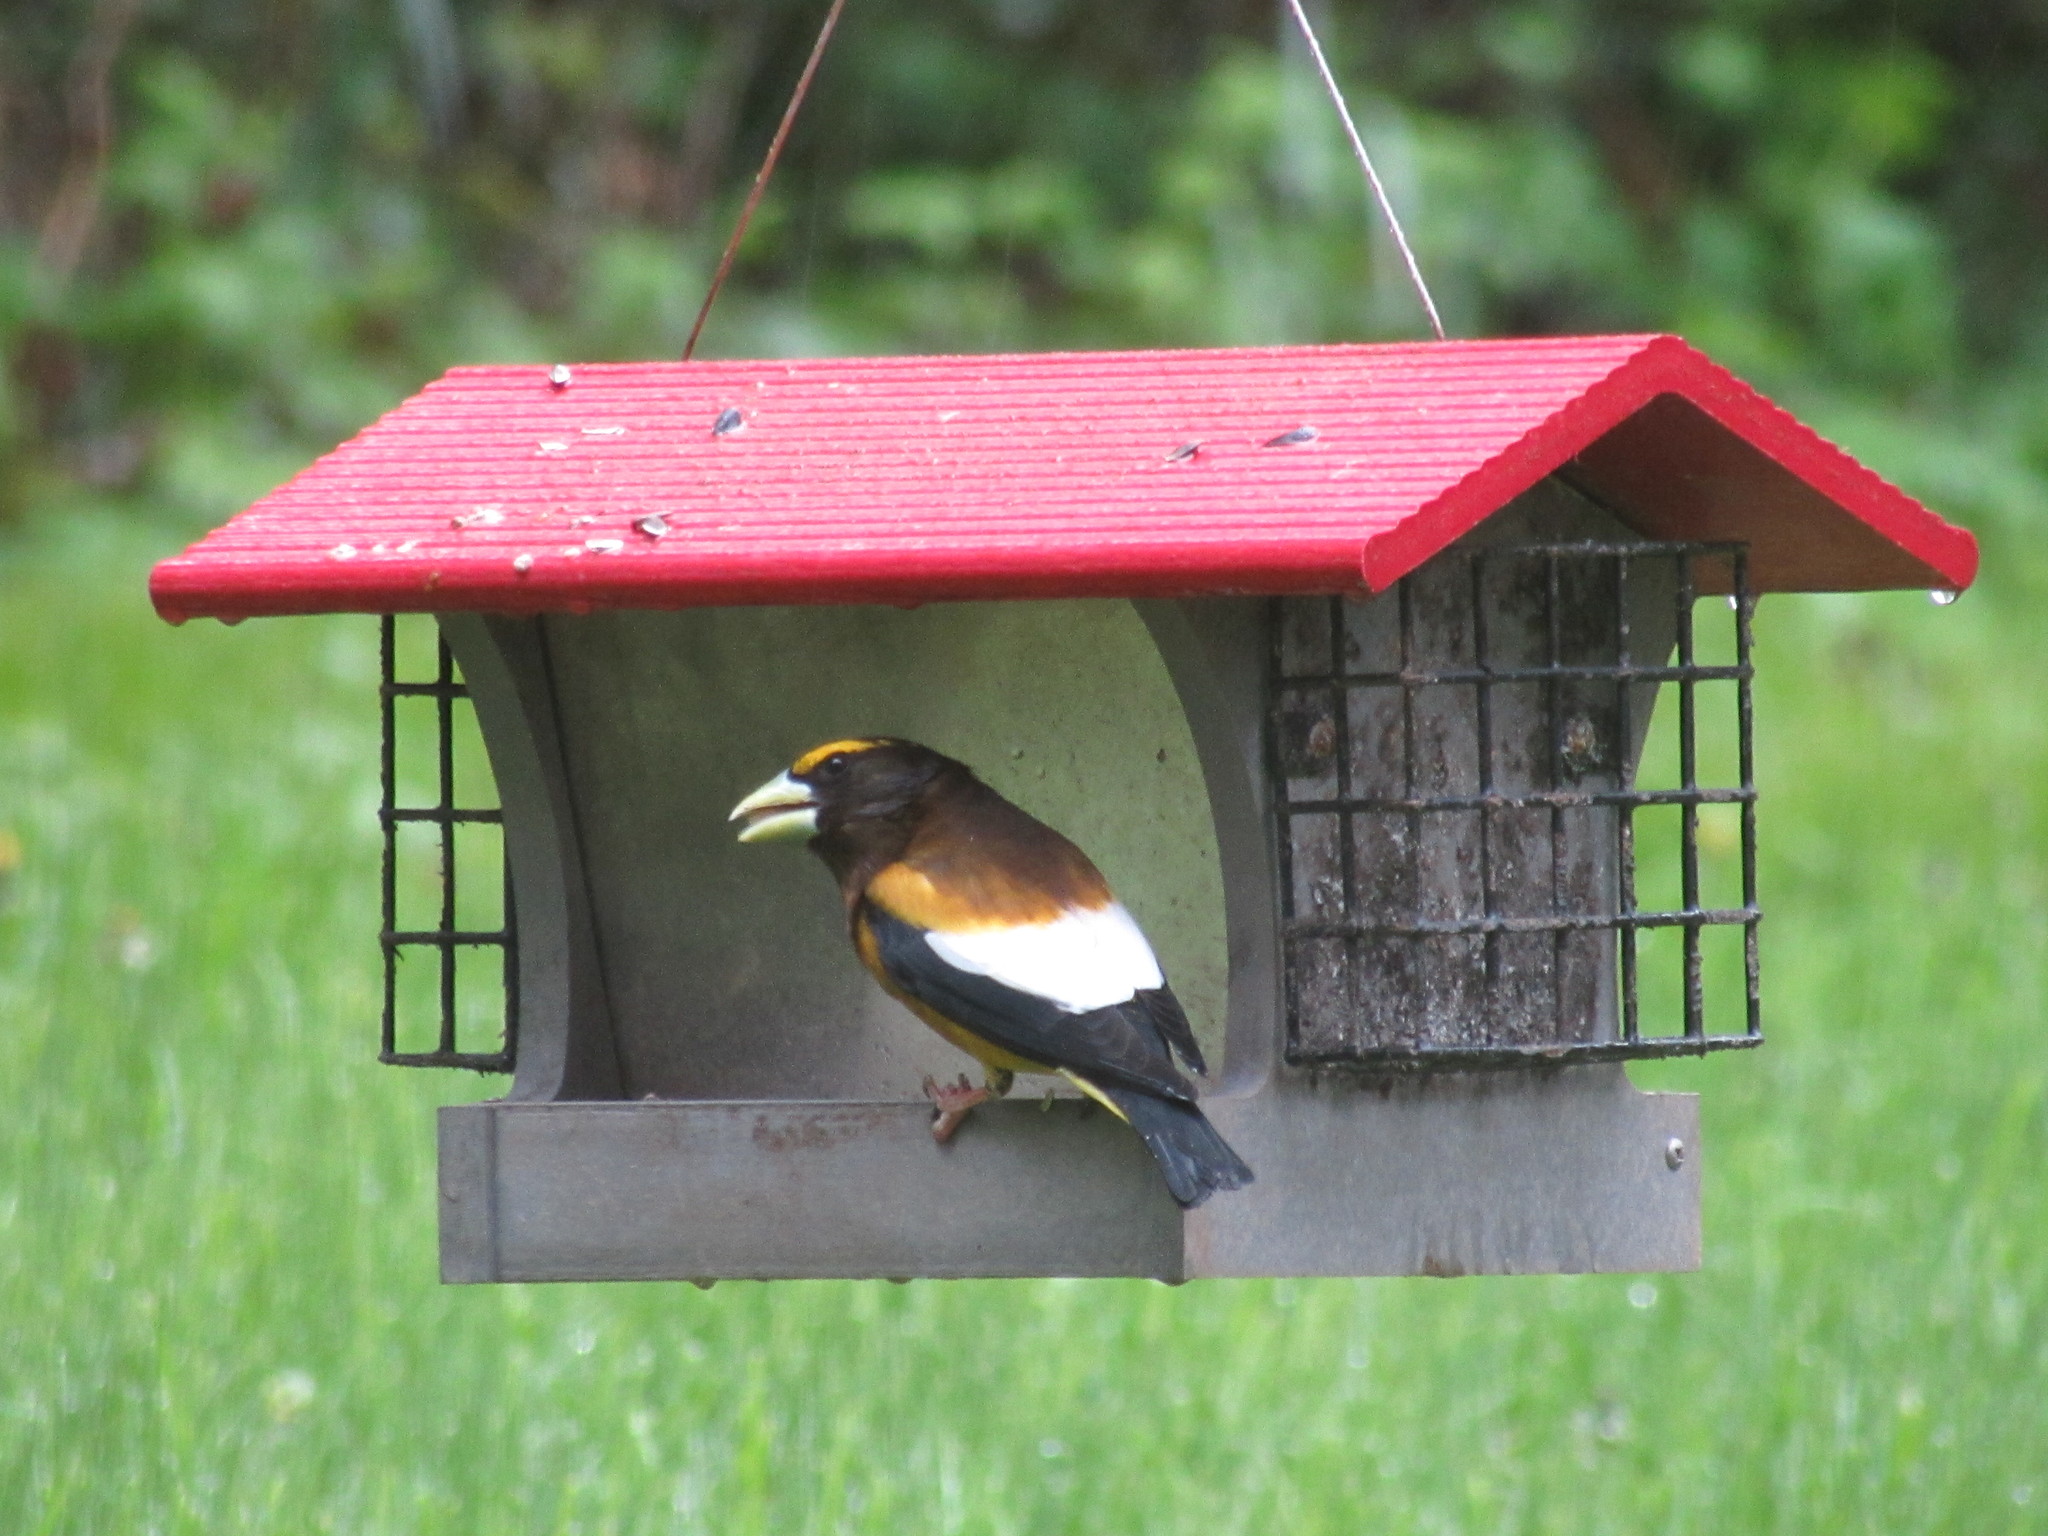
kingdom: Animalia
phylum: Chordata
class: Aves
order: Passeriformes
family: Fringillidae
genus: Hesperiphona
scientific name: Hesperiphona vespertina
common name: Evening grosbeak
